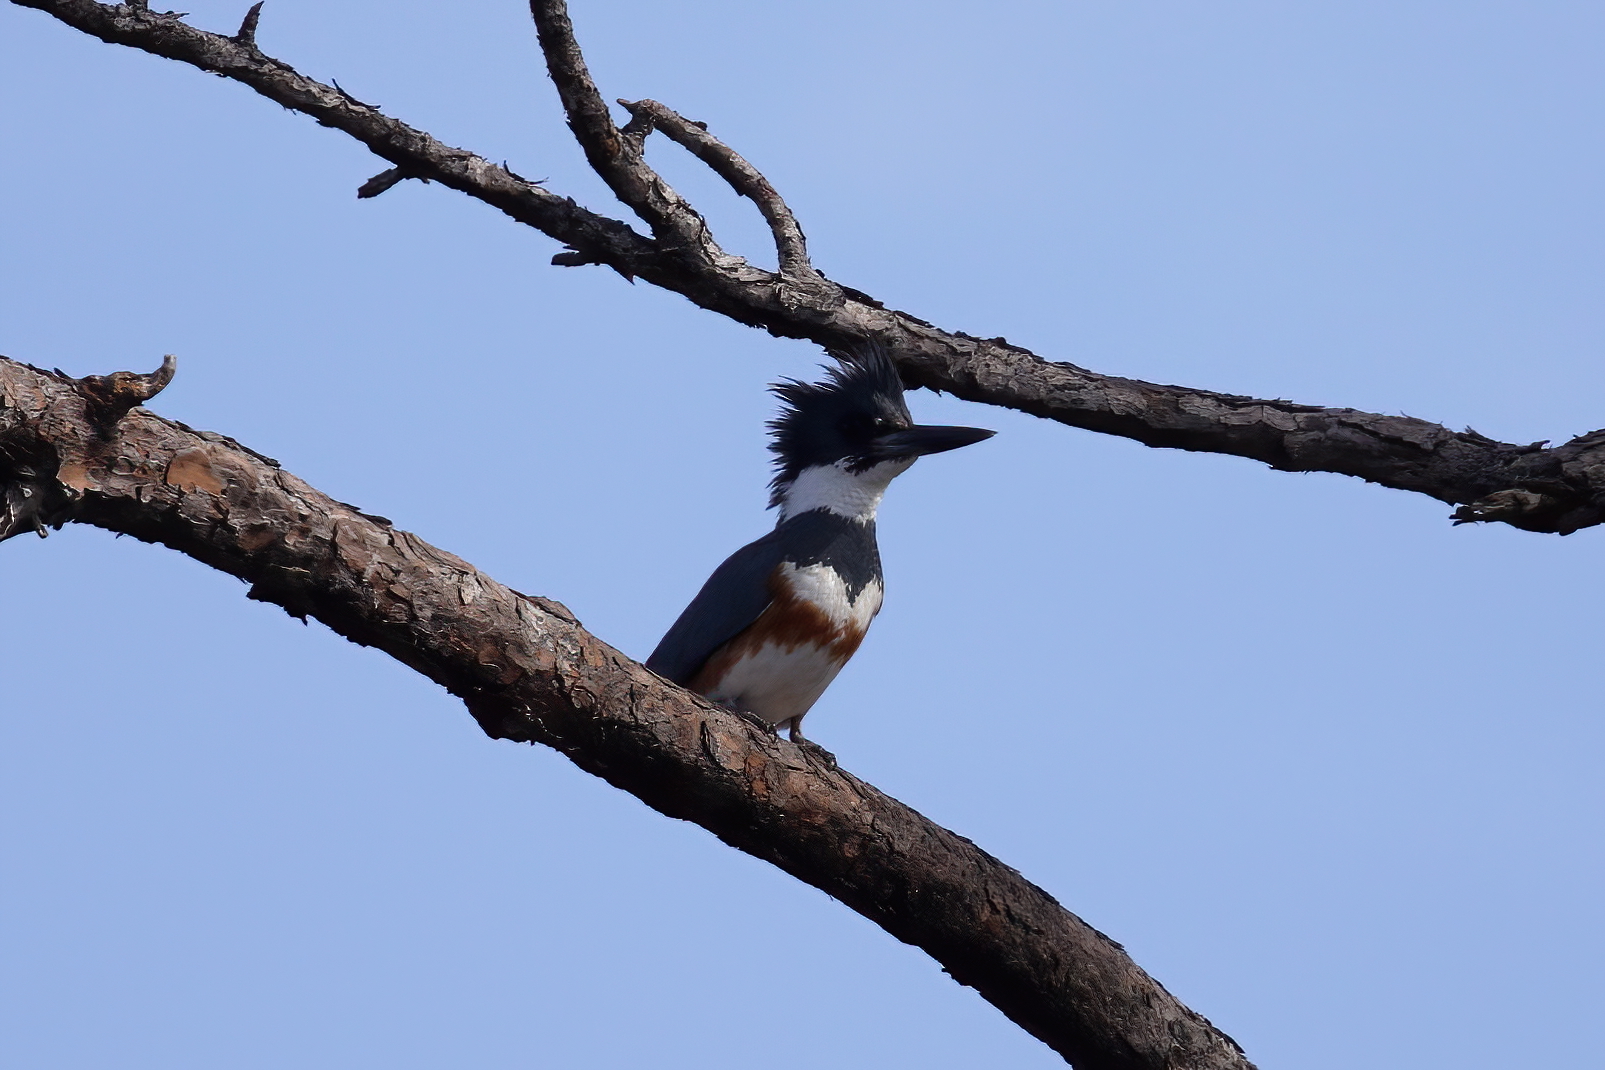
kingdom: Animalia
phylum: Chordata
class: Aves
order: Coraciiformes
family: Alcedinidae
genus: Megaceryle
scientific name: Megaceryle alcyon
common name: Belted kingfisher
